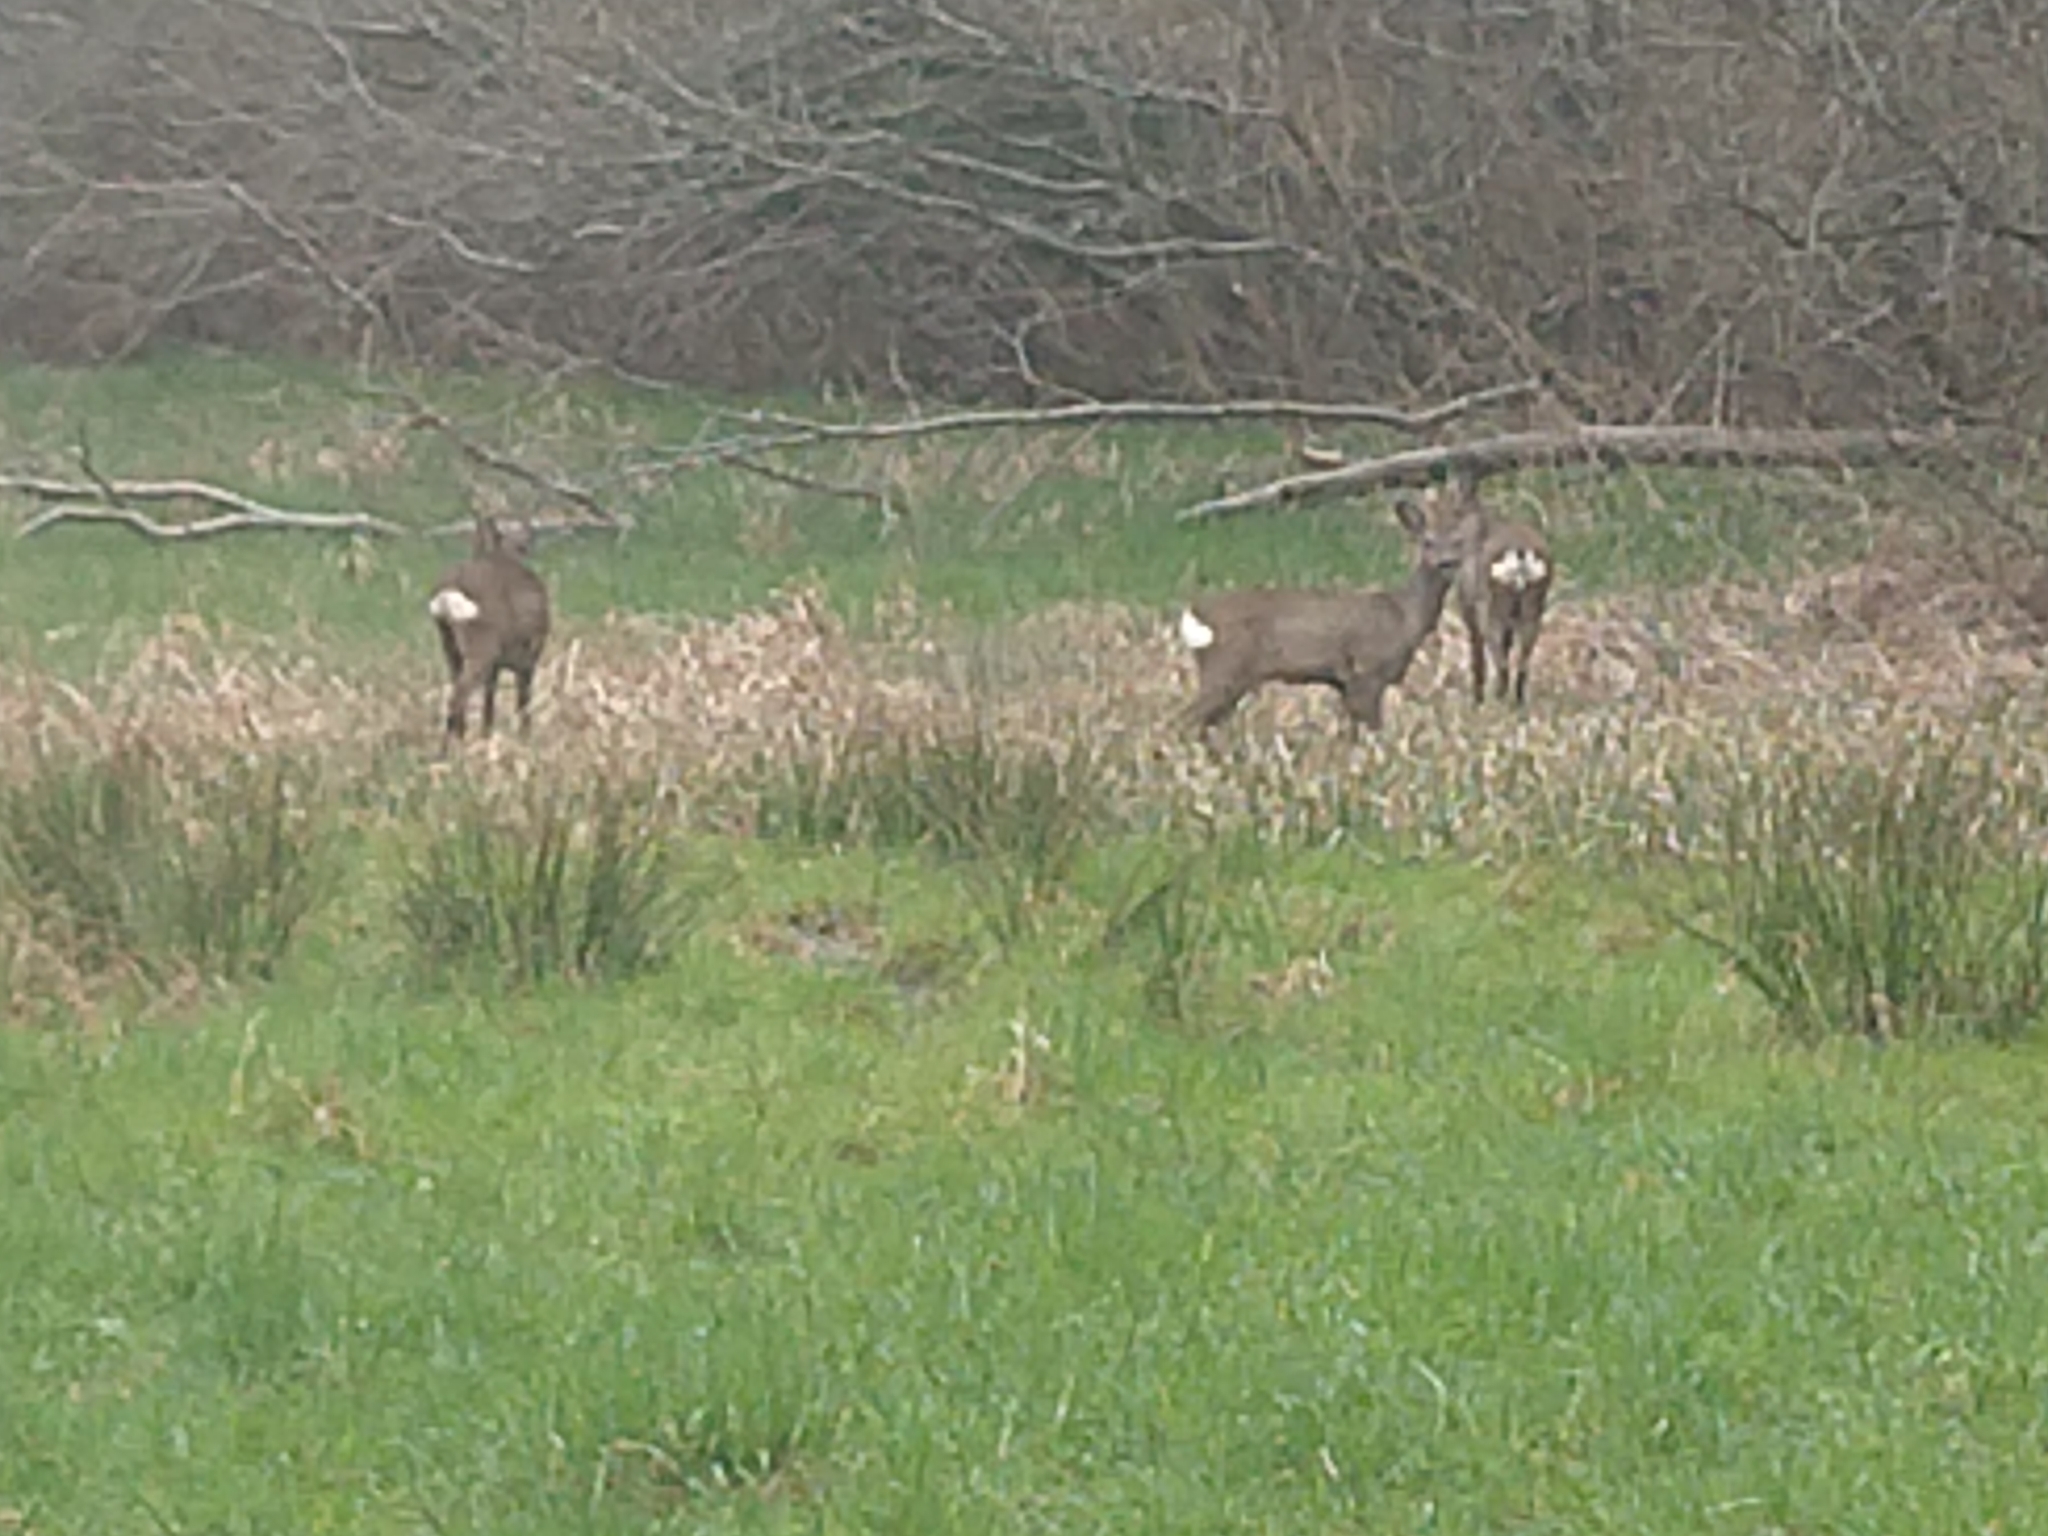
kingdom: Animalia
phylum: Chordata
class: Mammalia
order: Artiodactyla
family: Cervidae
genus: Capreolus
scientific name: Capreolus capreolus
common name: Western roe deer
